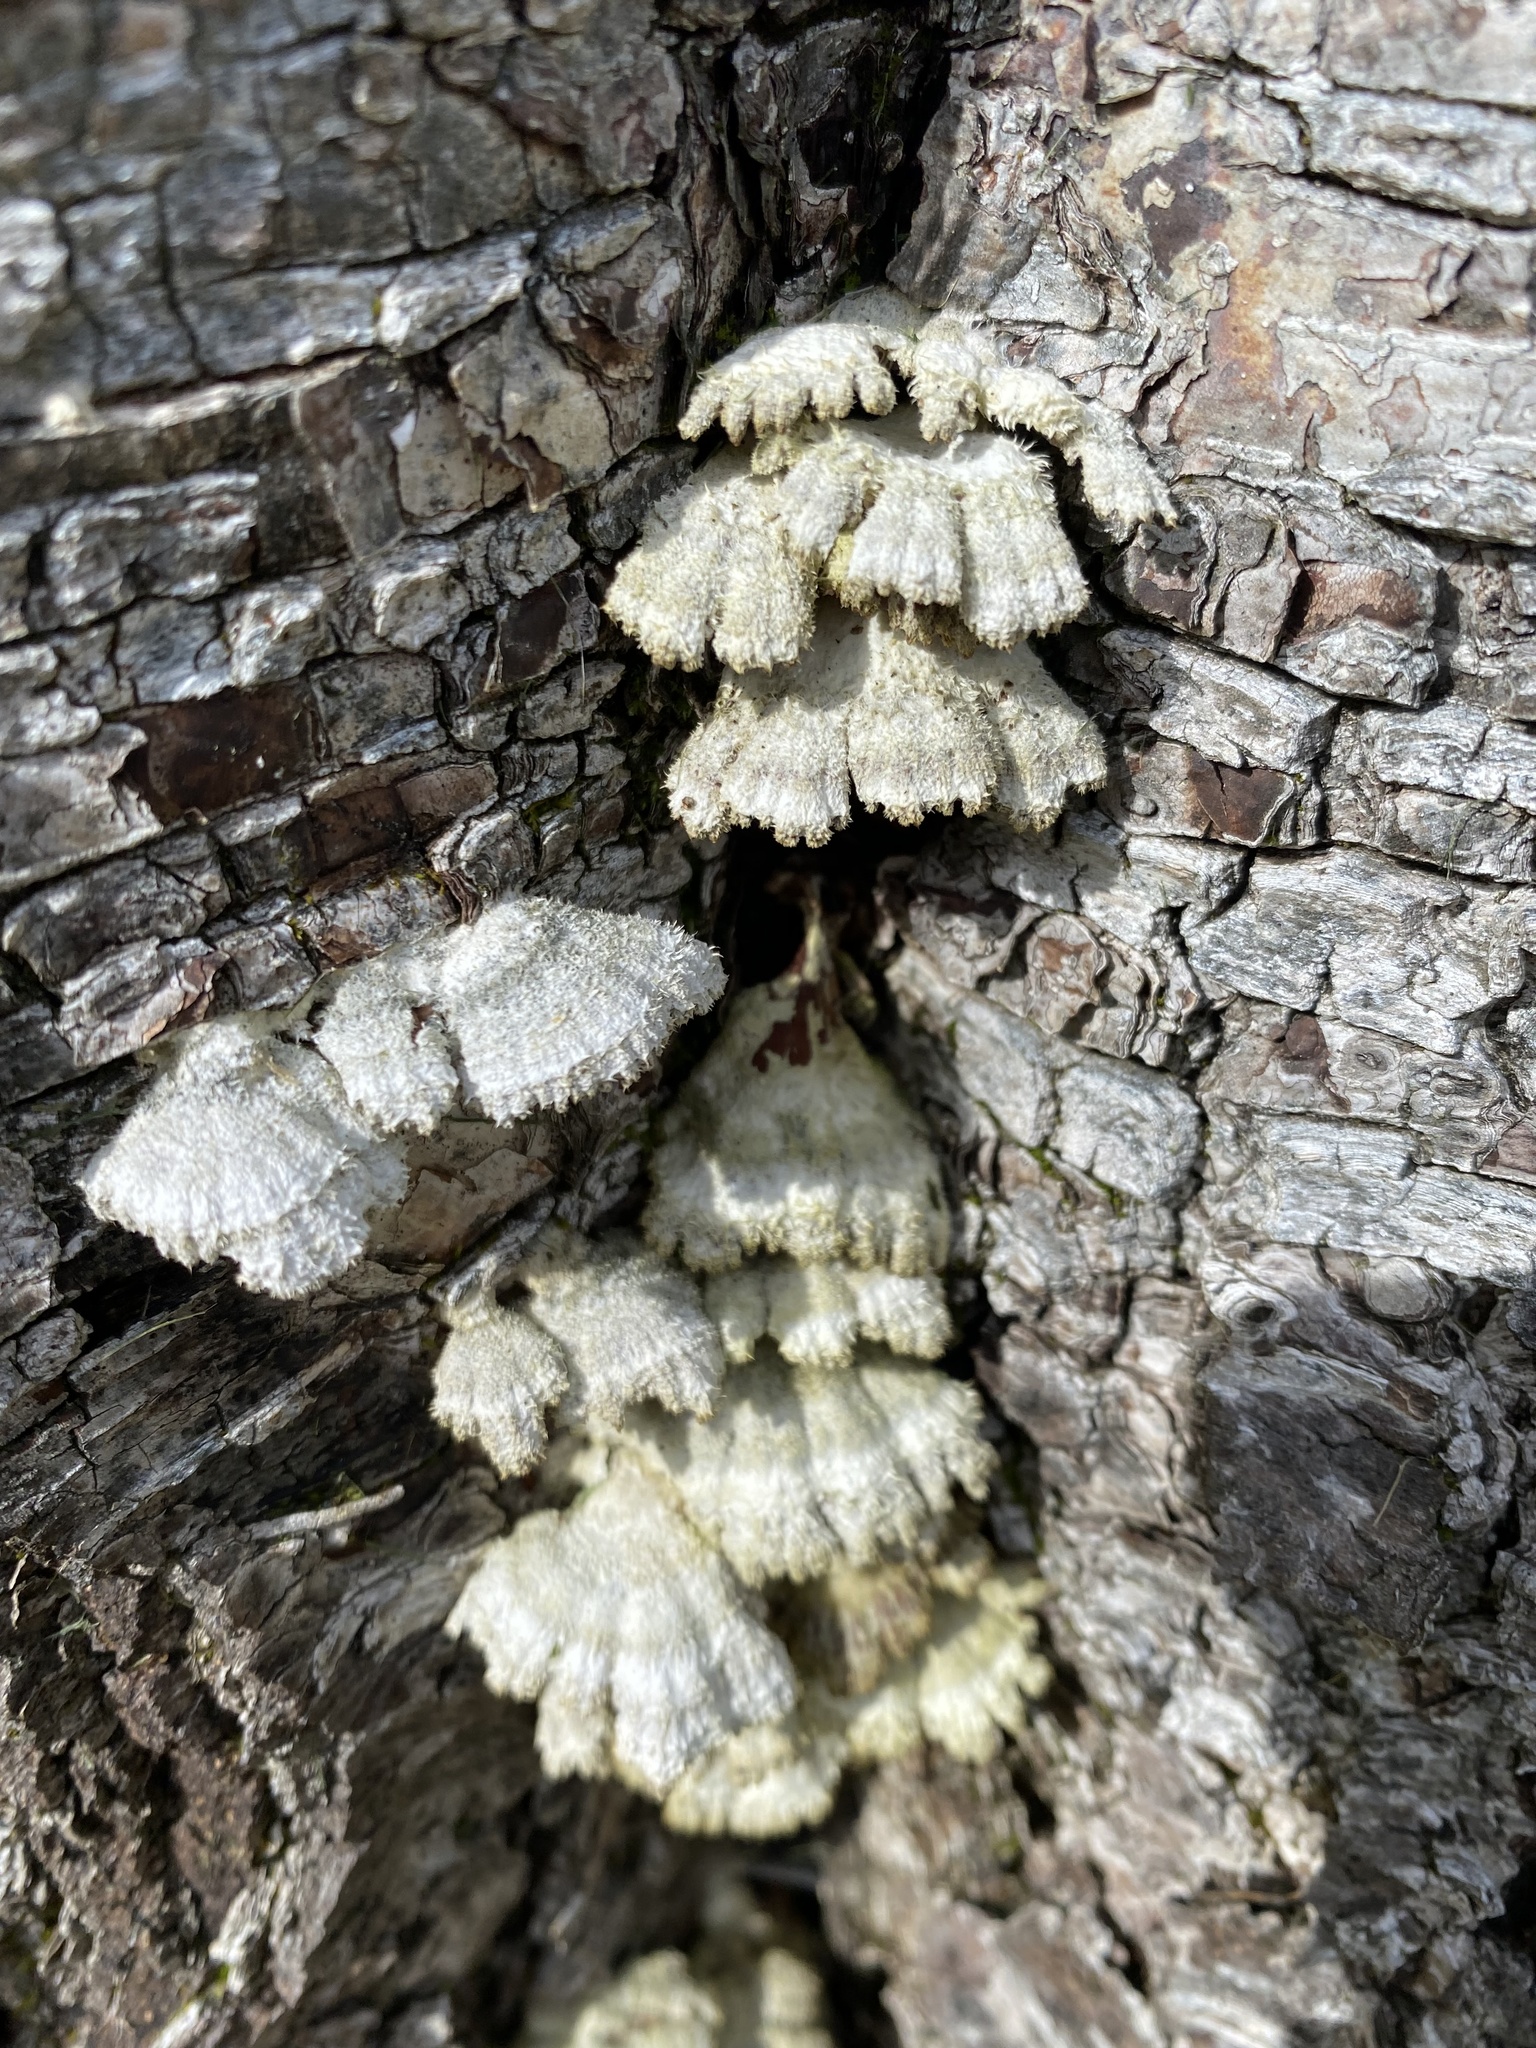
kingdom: Fungi
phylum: Basidiomycota
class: Agaricomycetes
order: Agaricales
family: Schizophyllaceae
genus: Schizophyllum
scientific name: Schizophyllum commune
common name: Common porecrust
